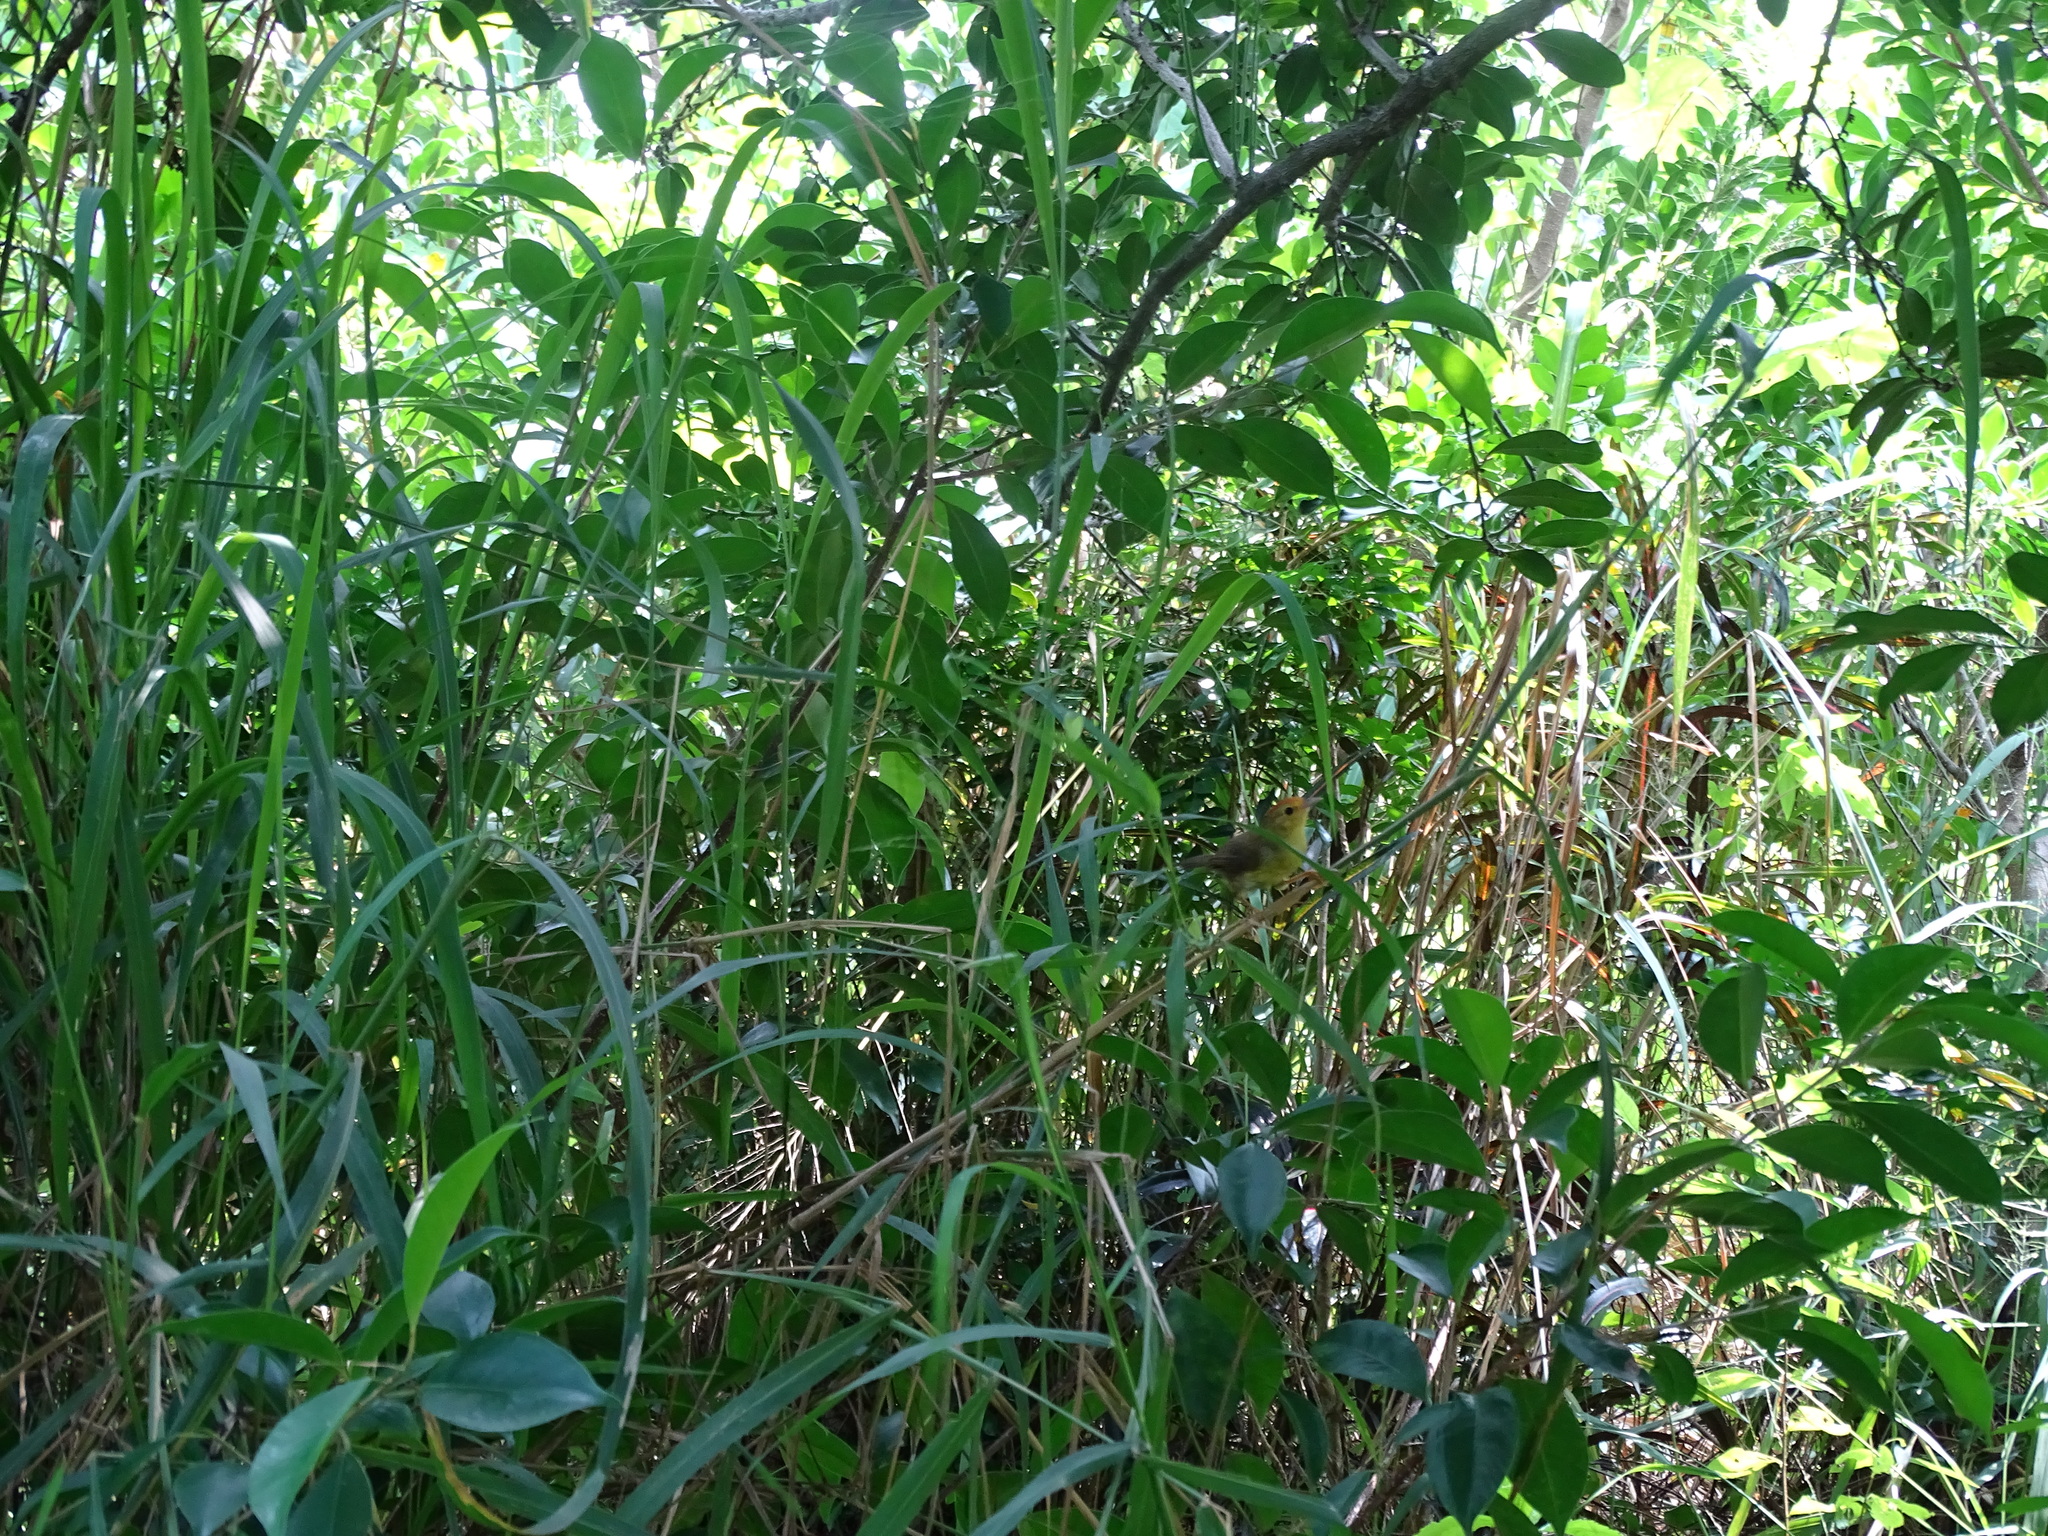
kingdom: Animalia
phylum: Chordata
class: Aves
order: Passeriformes
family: Timaliidae
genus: Stachyridopsis
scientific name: Stachyridopsis ruficeps
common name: Rufous-capped babbler
